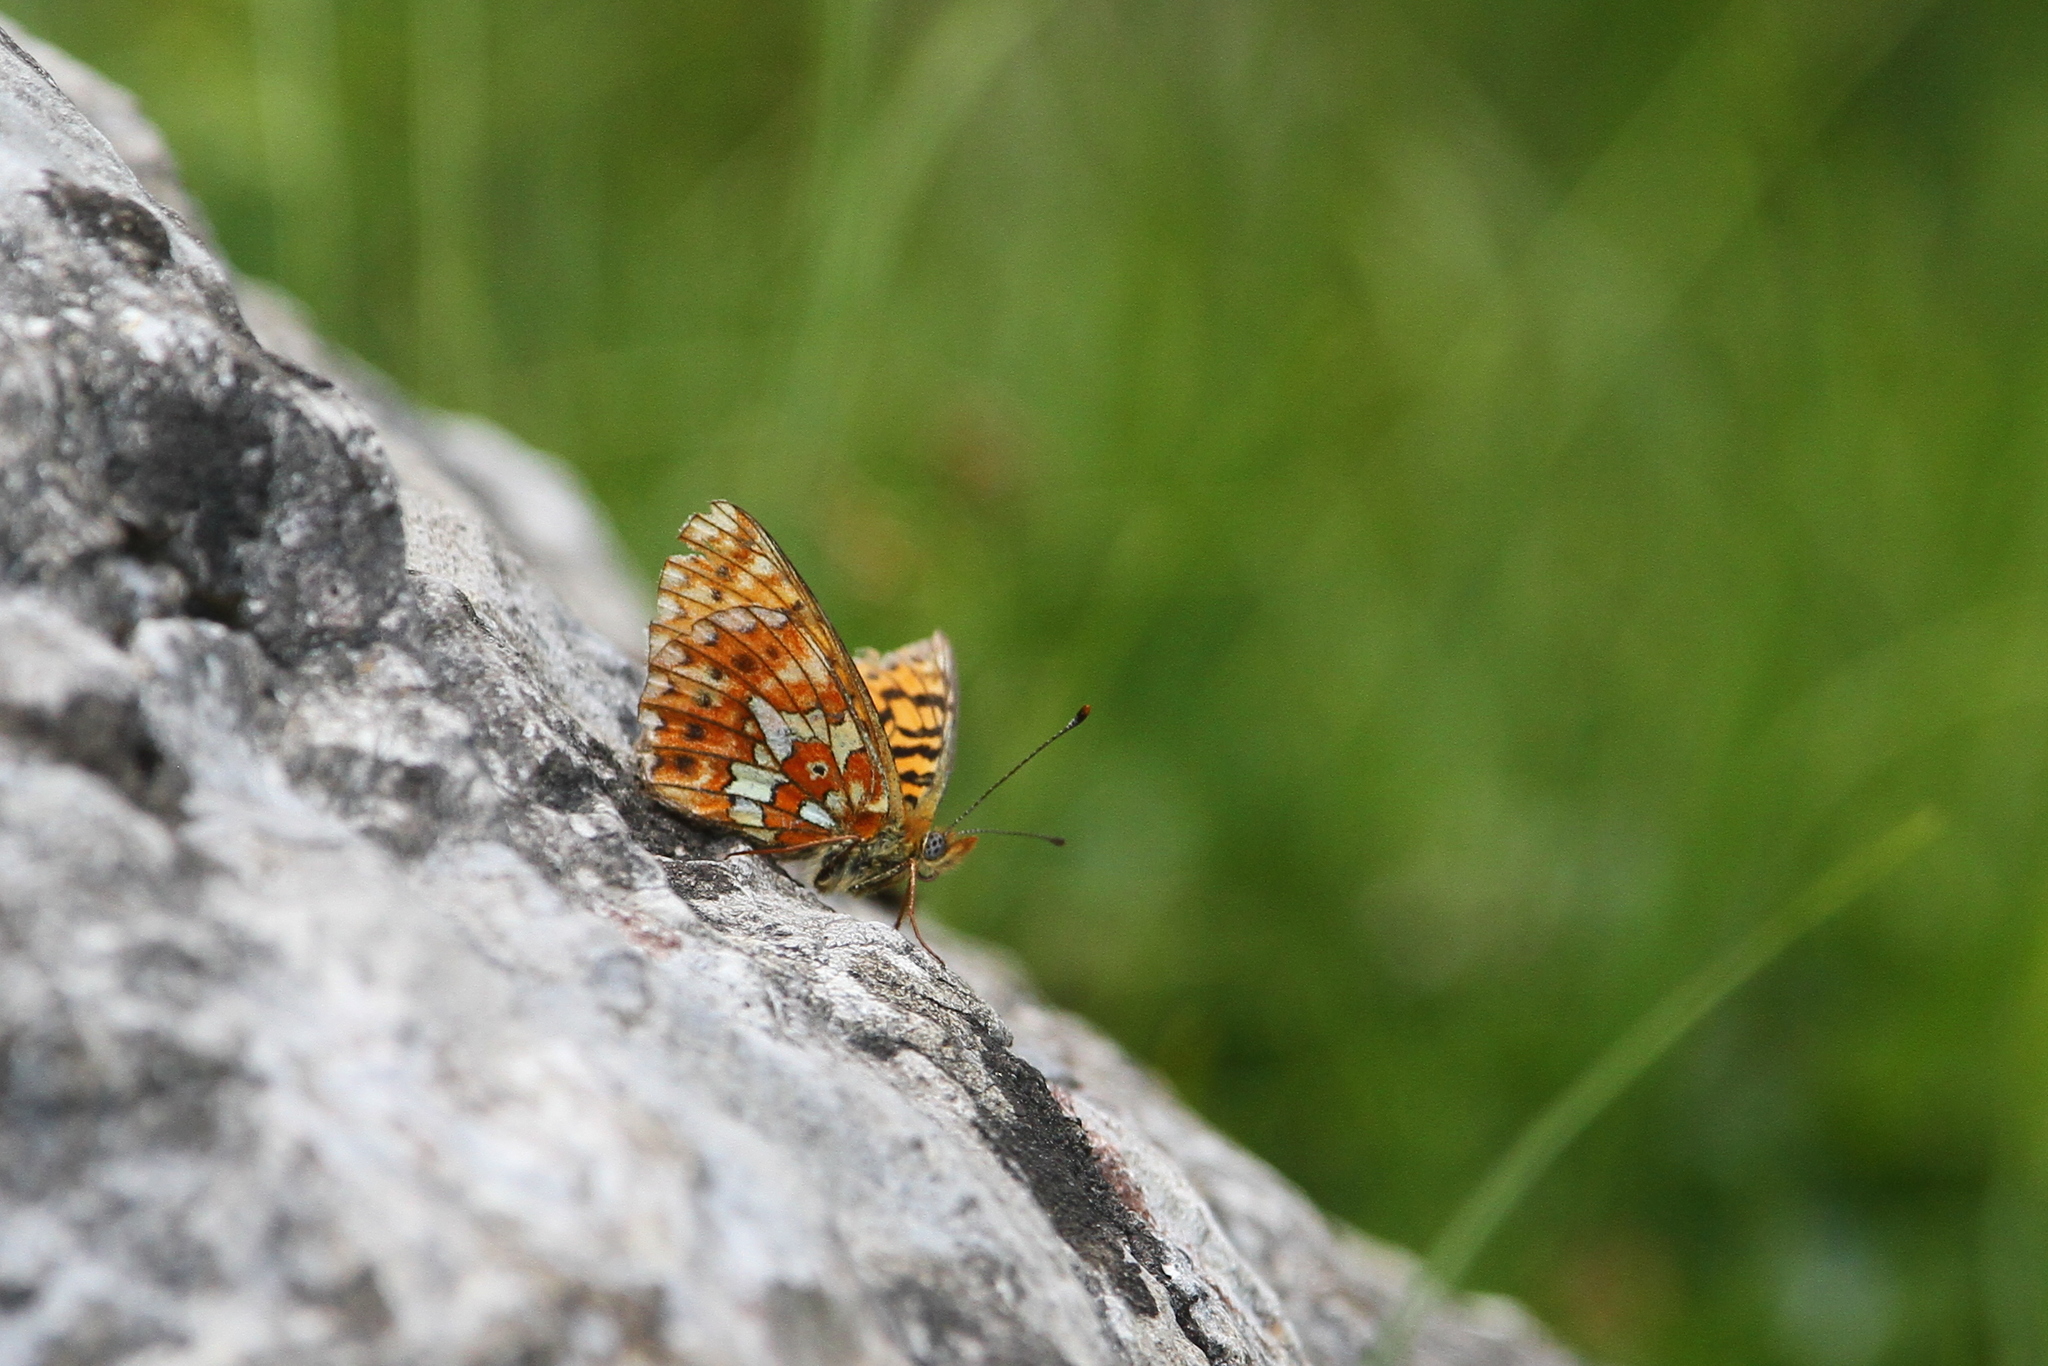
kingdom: Animalia
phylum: Arthropoda
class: Insecta
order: Lepidoptera
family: Nymphalidae
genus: Clossiana
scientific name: Clossiana euphrosyne
